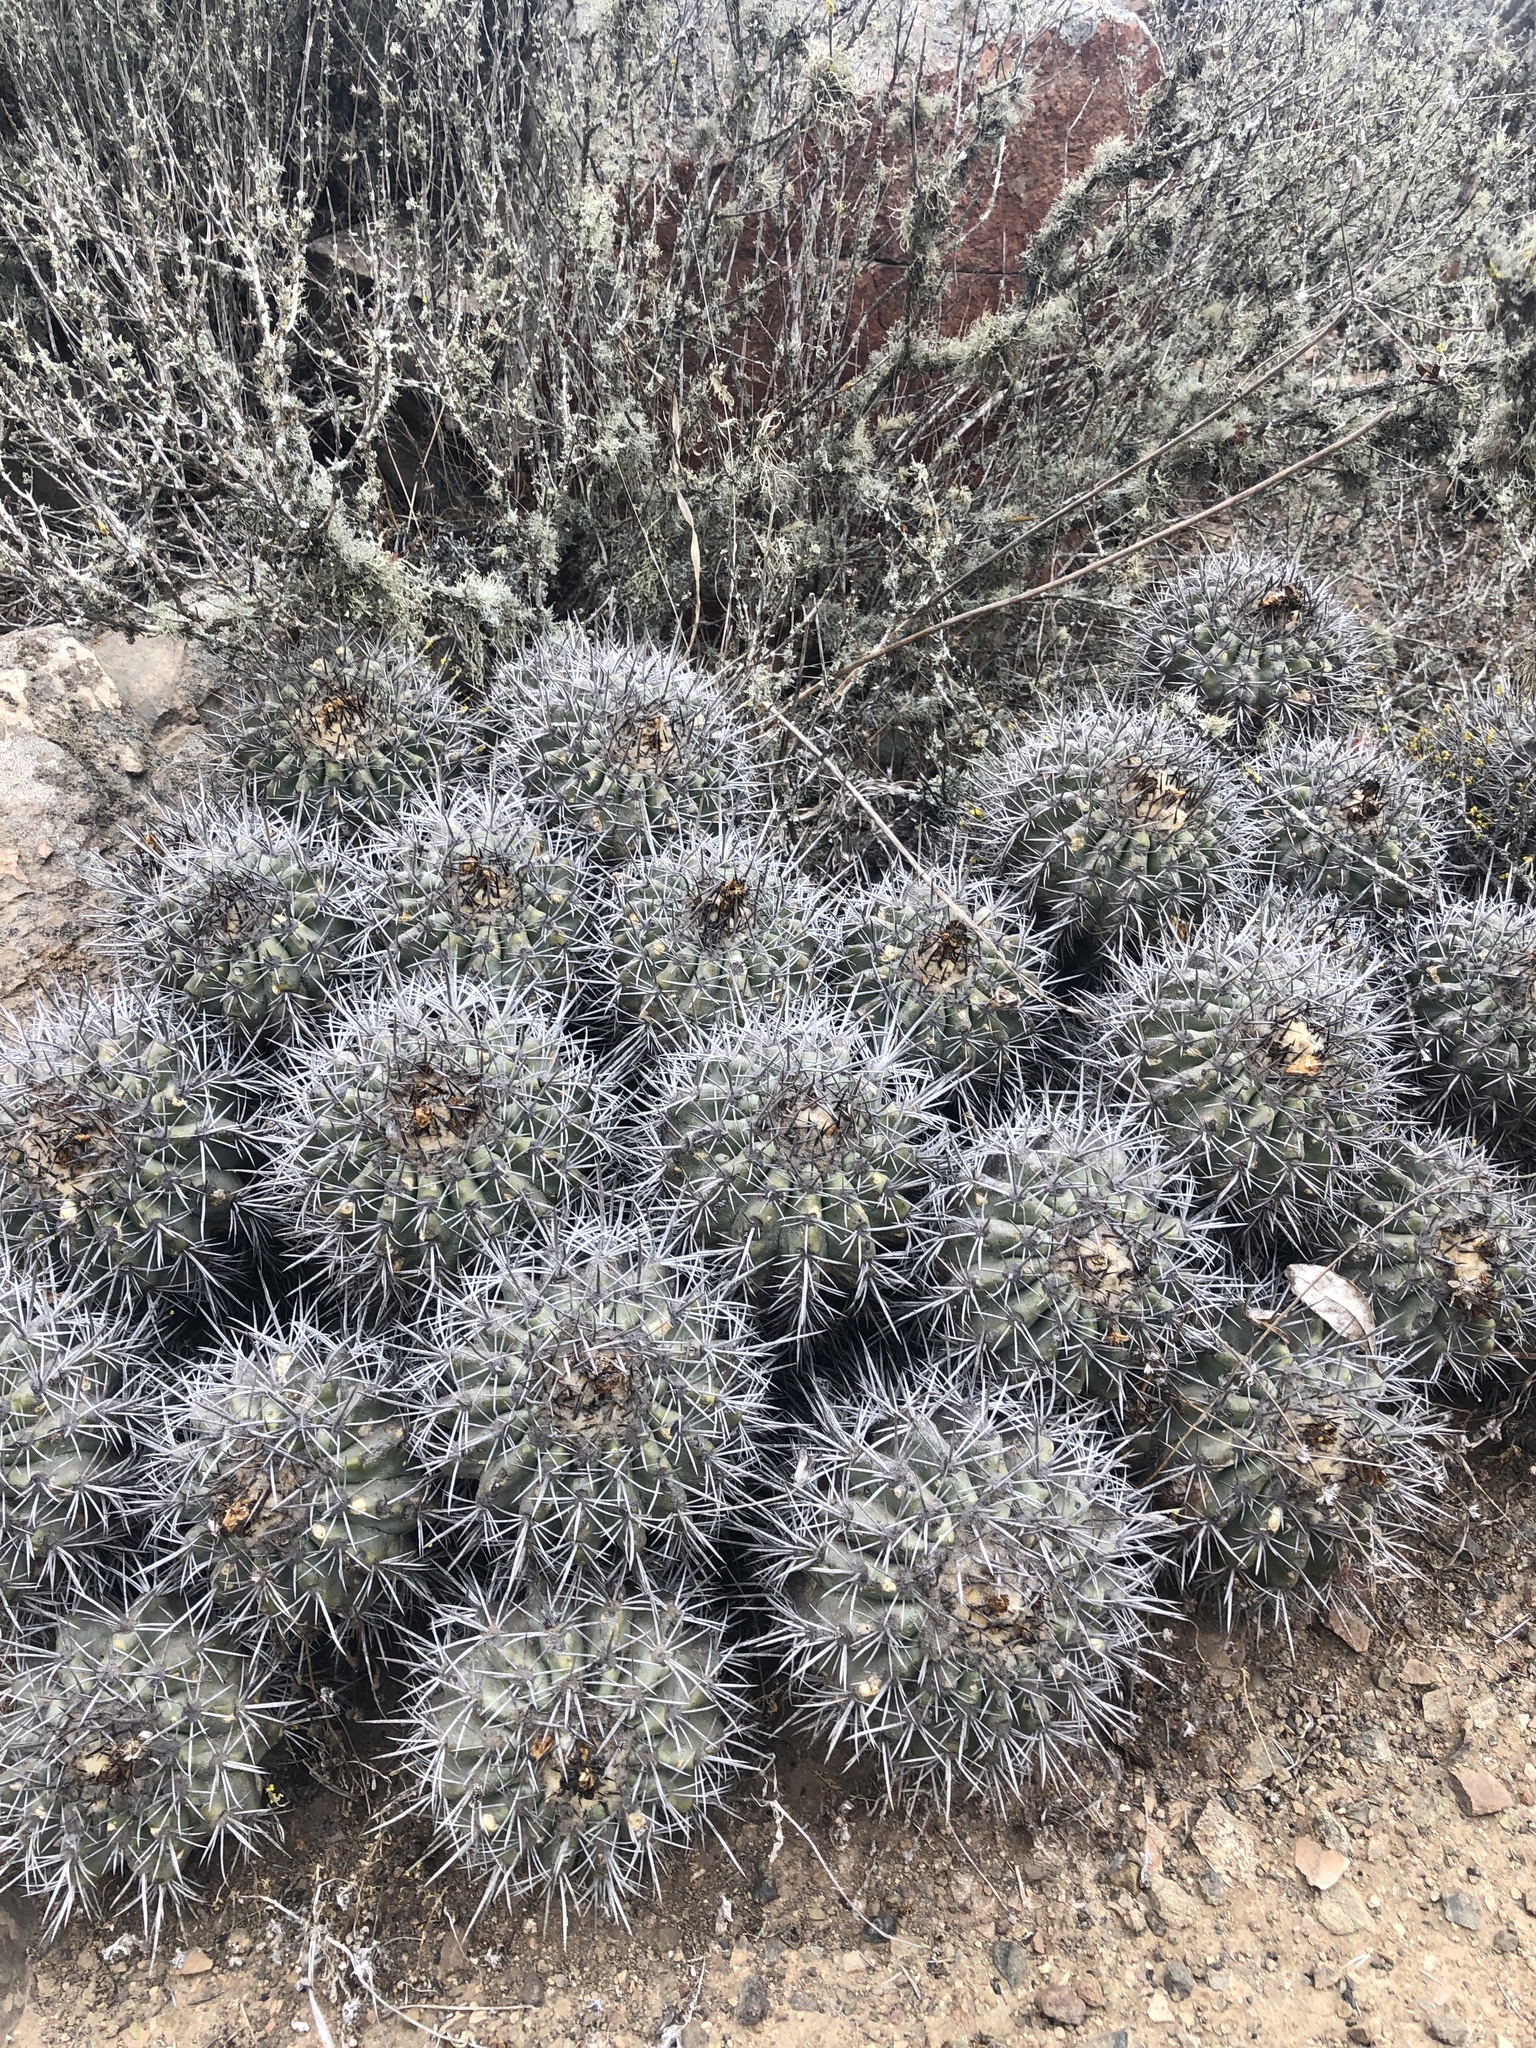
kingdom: Plantae
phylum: Tracheophyta
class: Magnoliopsida
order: Caryophyllales
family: Cactaceae
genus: Copiapoa
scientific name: Copiapoa coquimbana
